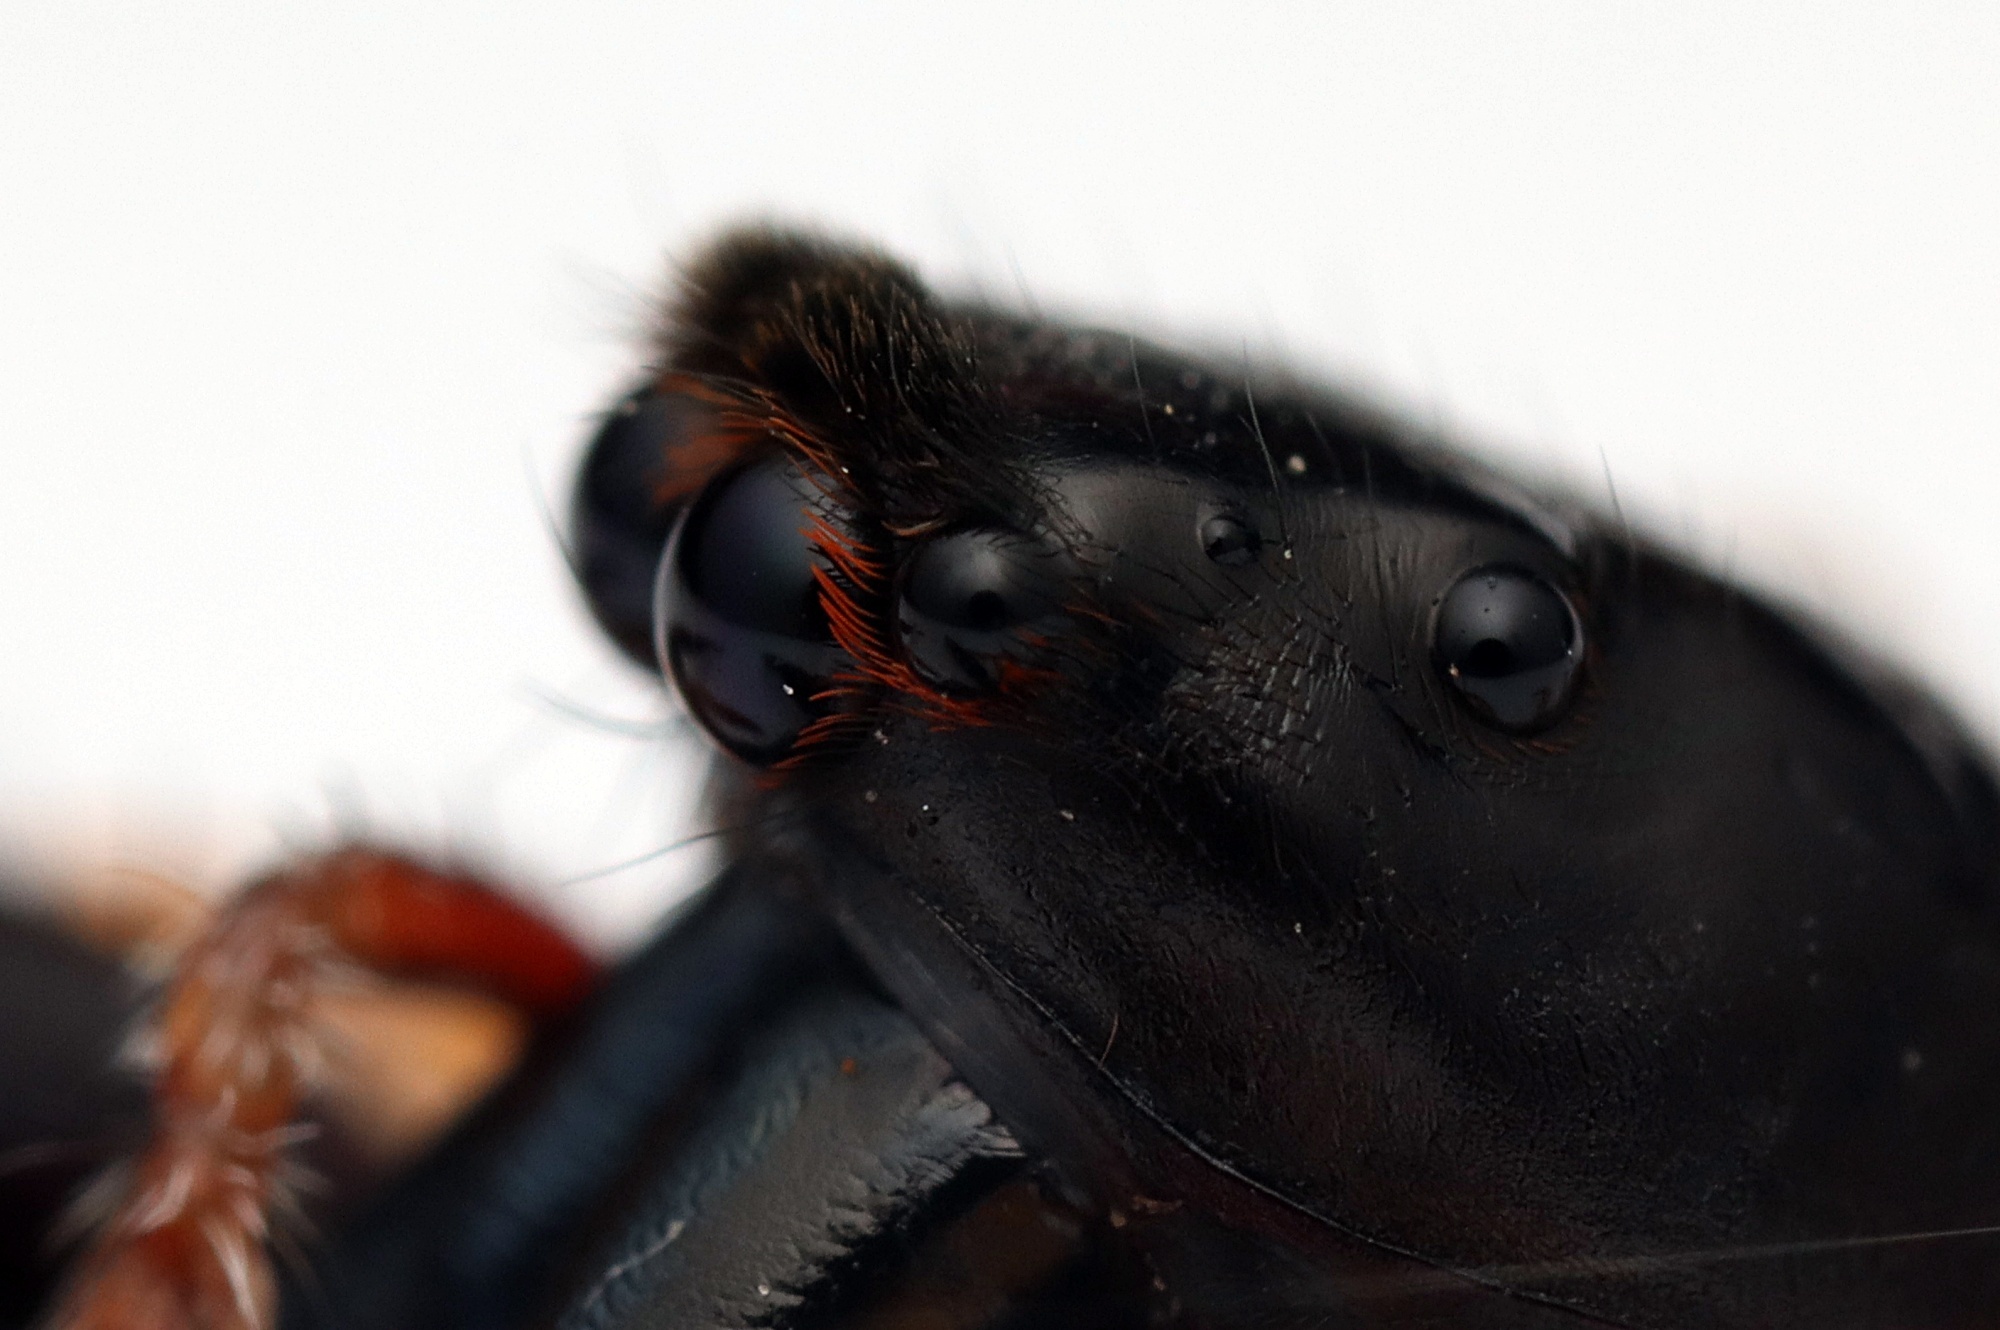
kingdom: Animalia
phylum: Arthropoda
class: Arachnida
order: Araneae
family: Salticidae
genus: Trite
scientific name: Trite planiceps
